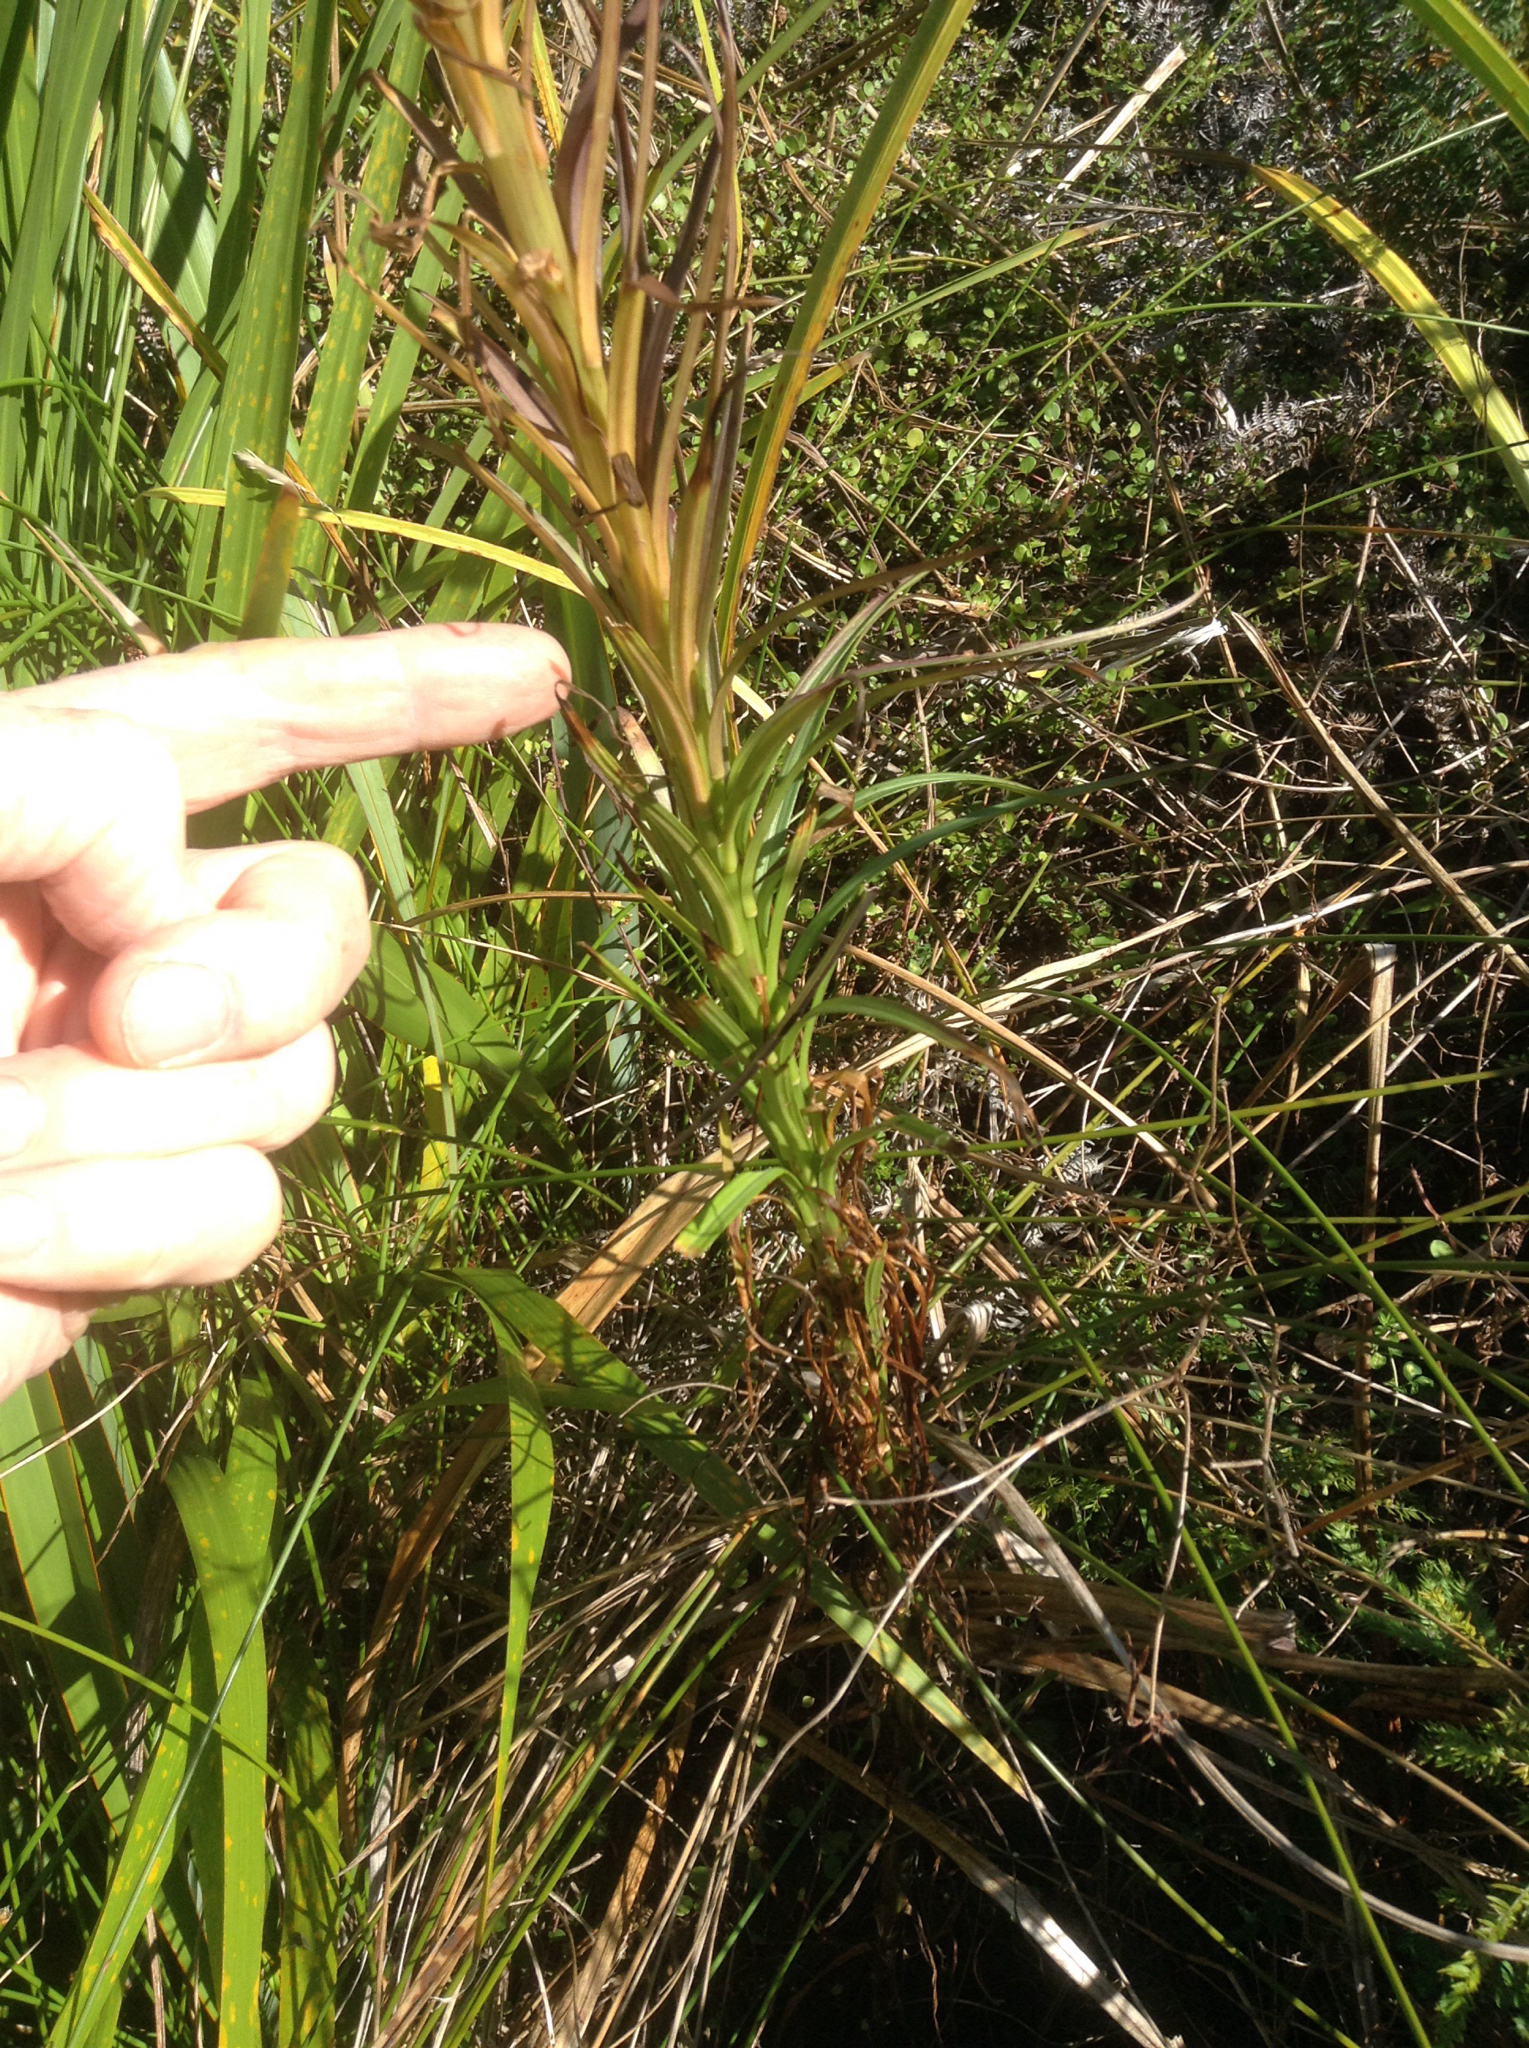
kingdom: Plantae
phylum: Tracheophyta
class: Liliopsida
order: Liliales
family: Liliaceae
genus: Lilium
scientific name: Lilium formosanum
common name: Formosa lily
